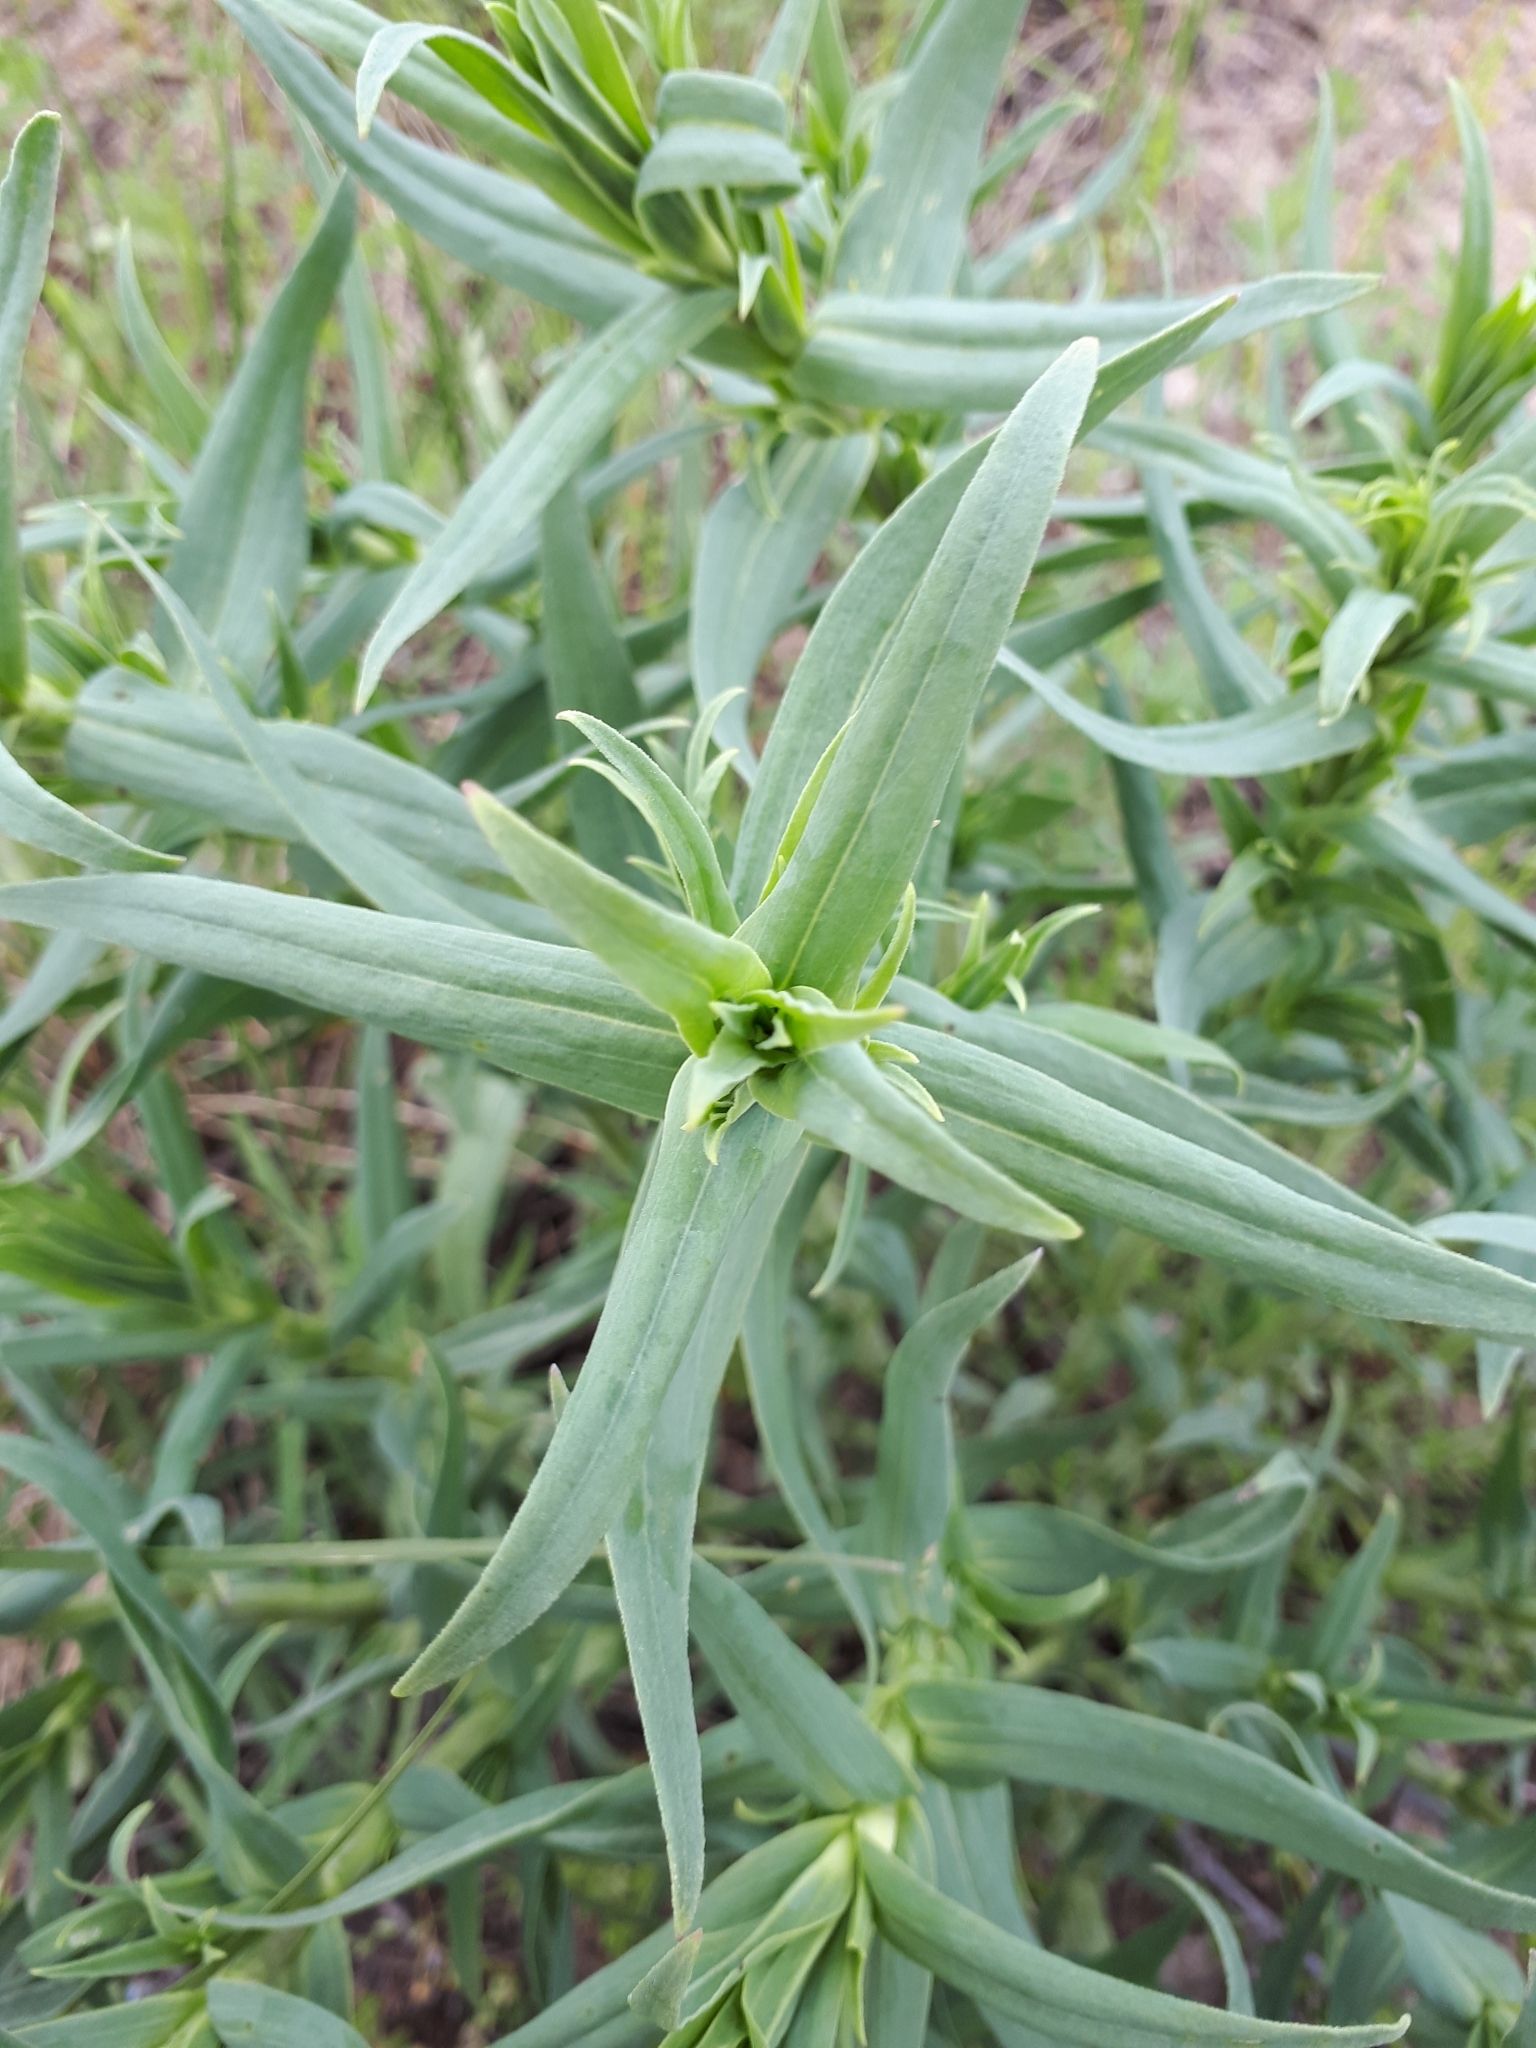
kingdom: Plantae
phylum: Tracheophyta
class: Magnoliopsida
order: Caryophyllales
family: Caryophyllaceae
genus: Gypsophila
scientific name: Gypsophila paniculata
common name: Baby's-breath
